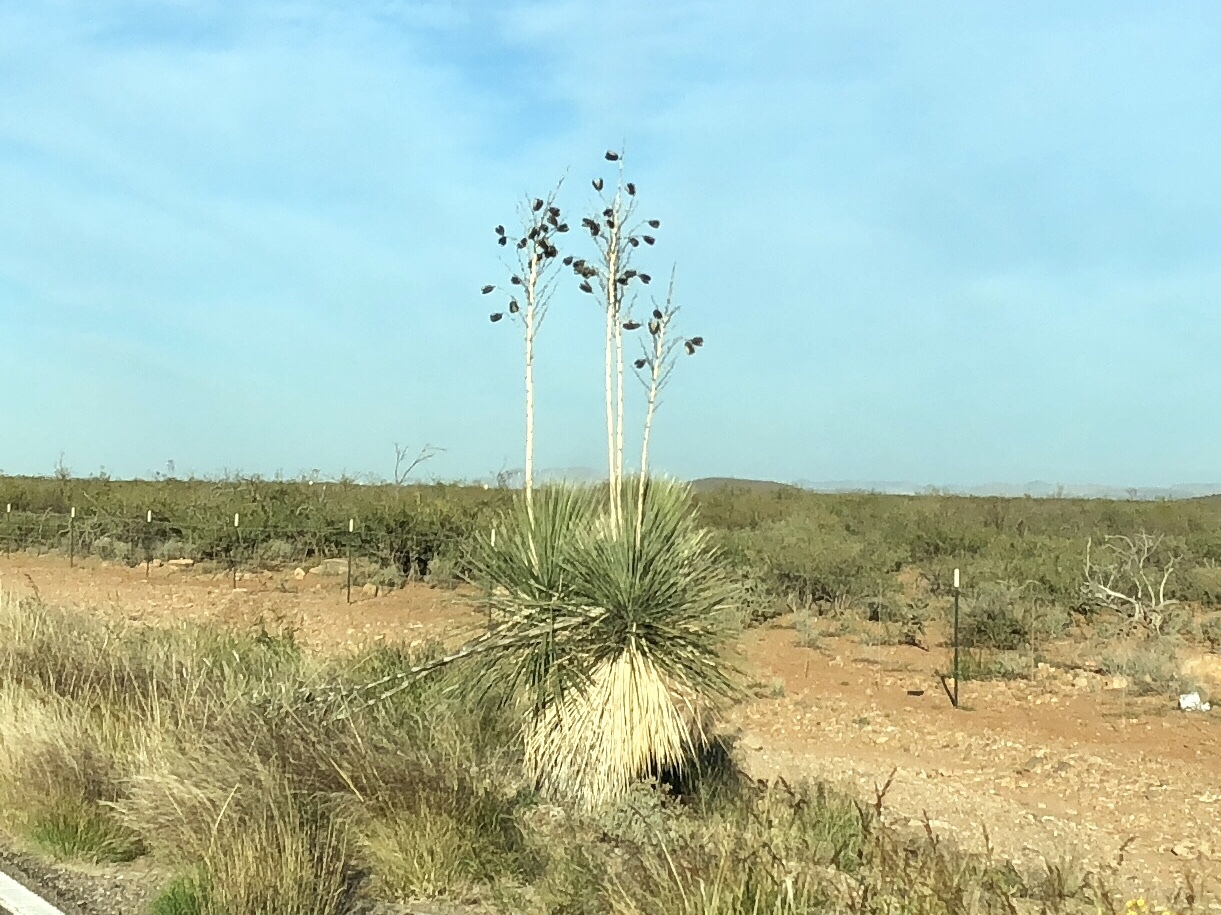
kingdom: Plantae
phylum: Tracheophyta
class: Liliopsida
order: Asparagales
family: Asparagaceae
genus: Yucca
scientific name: Yucca elata
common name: Palmella
